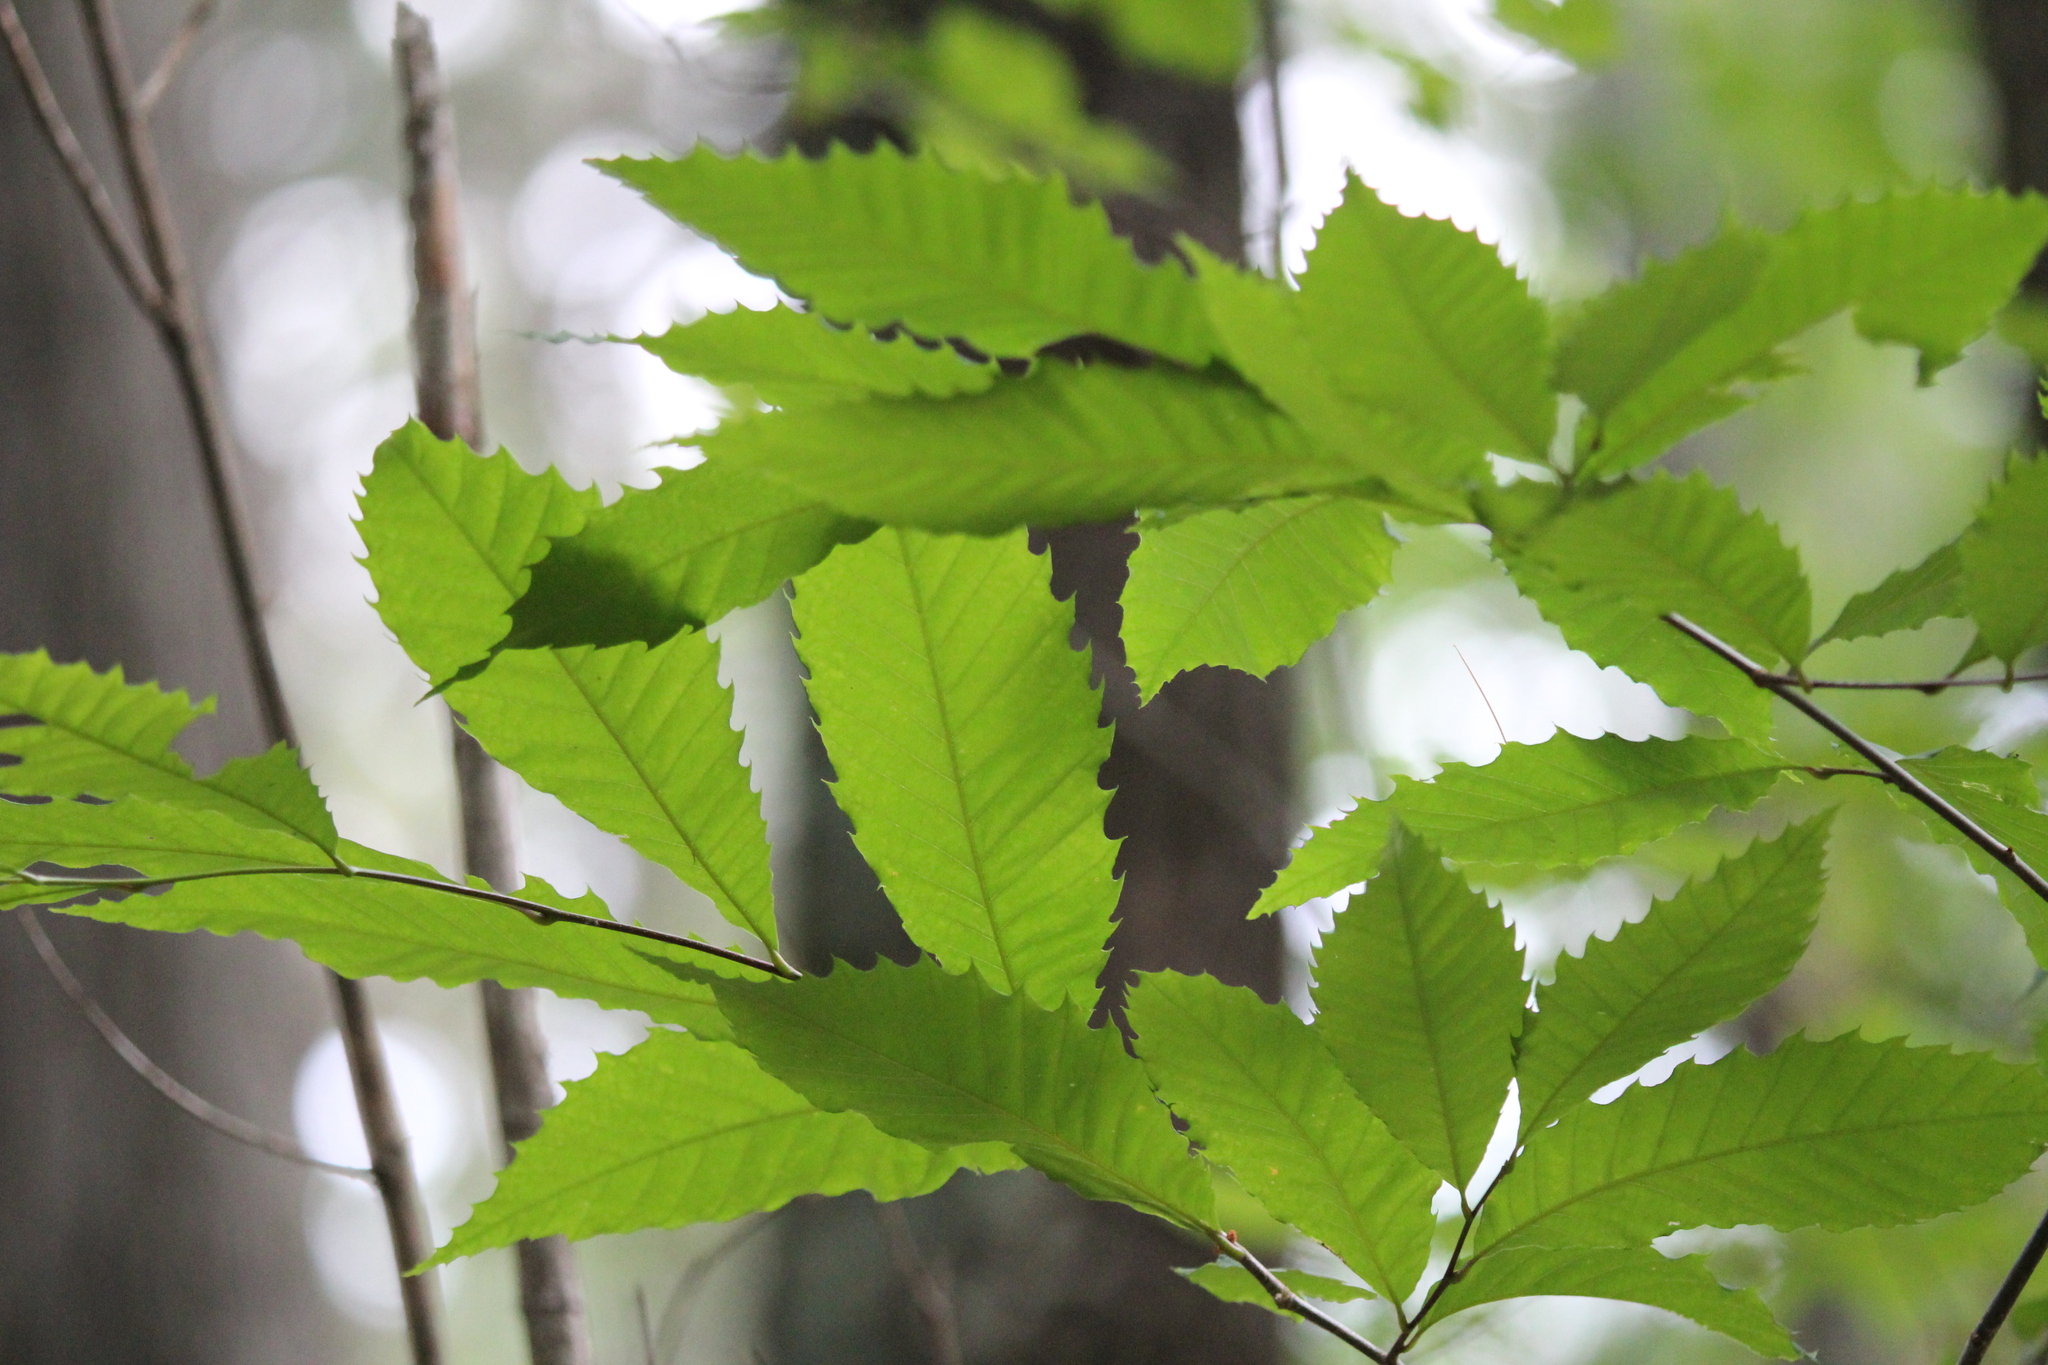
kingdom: Plantae
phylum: Tracheophyta
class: Magnoliopsida
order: Fagales
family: Fagaceae
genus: Castanea
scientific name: Castanea dentata
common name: American chestnut
